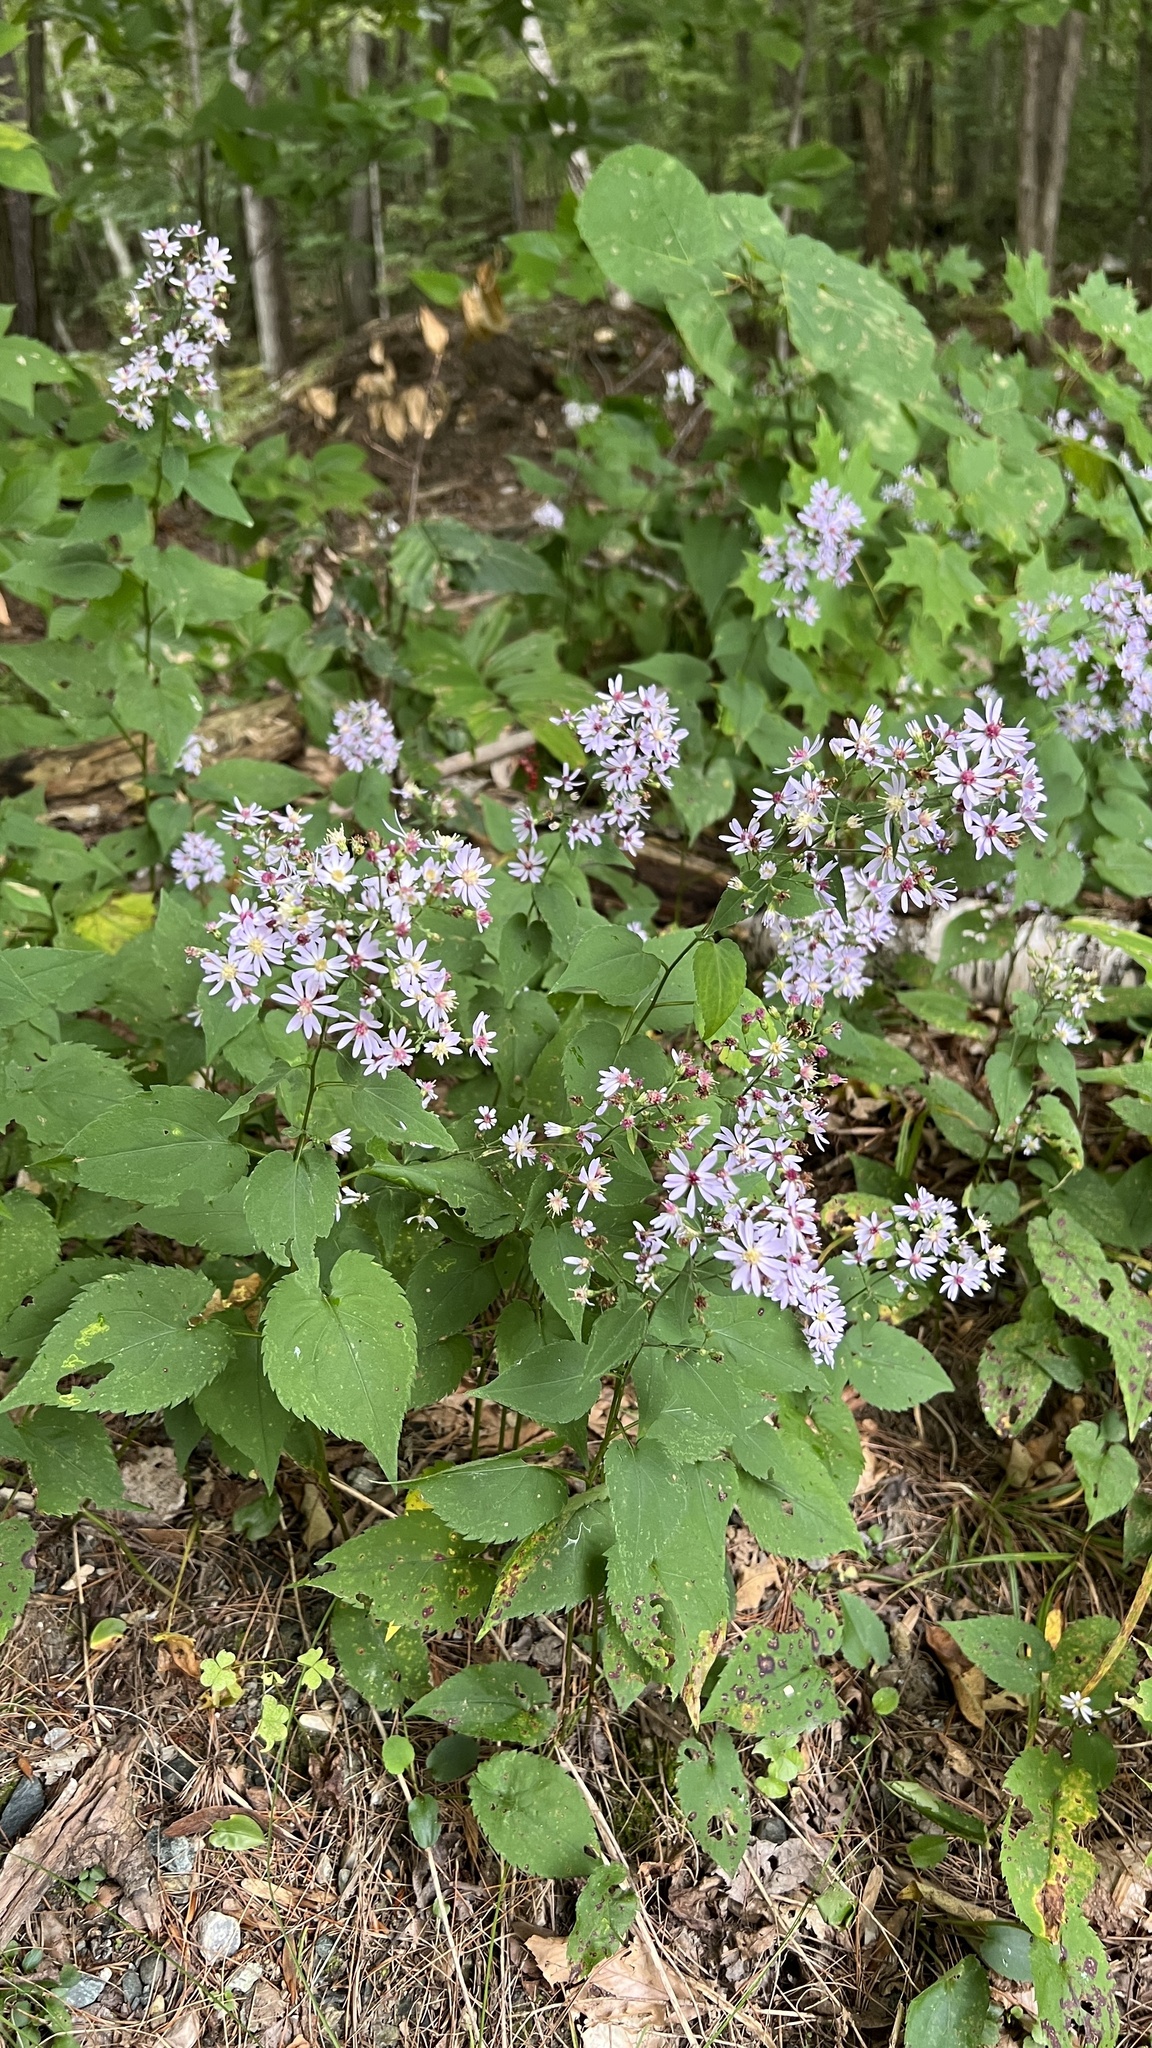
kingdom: Plantae
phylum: Tracheophyta
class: Magnoliopsida
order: Asterales
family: Asteraceae
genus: Symphyotrichum
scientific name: Symphyotrichum cordifolium
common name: Beeweed
